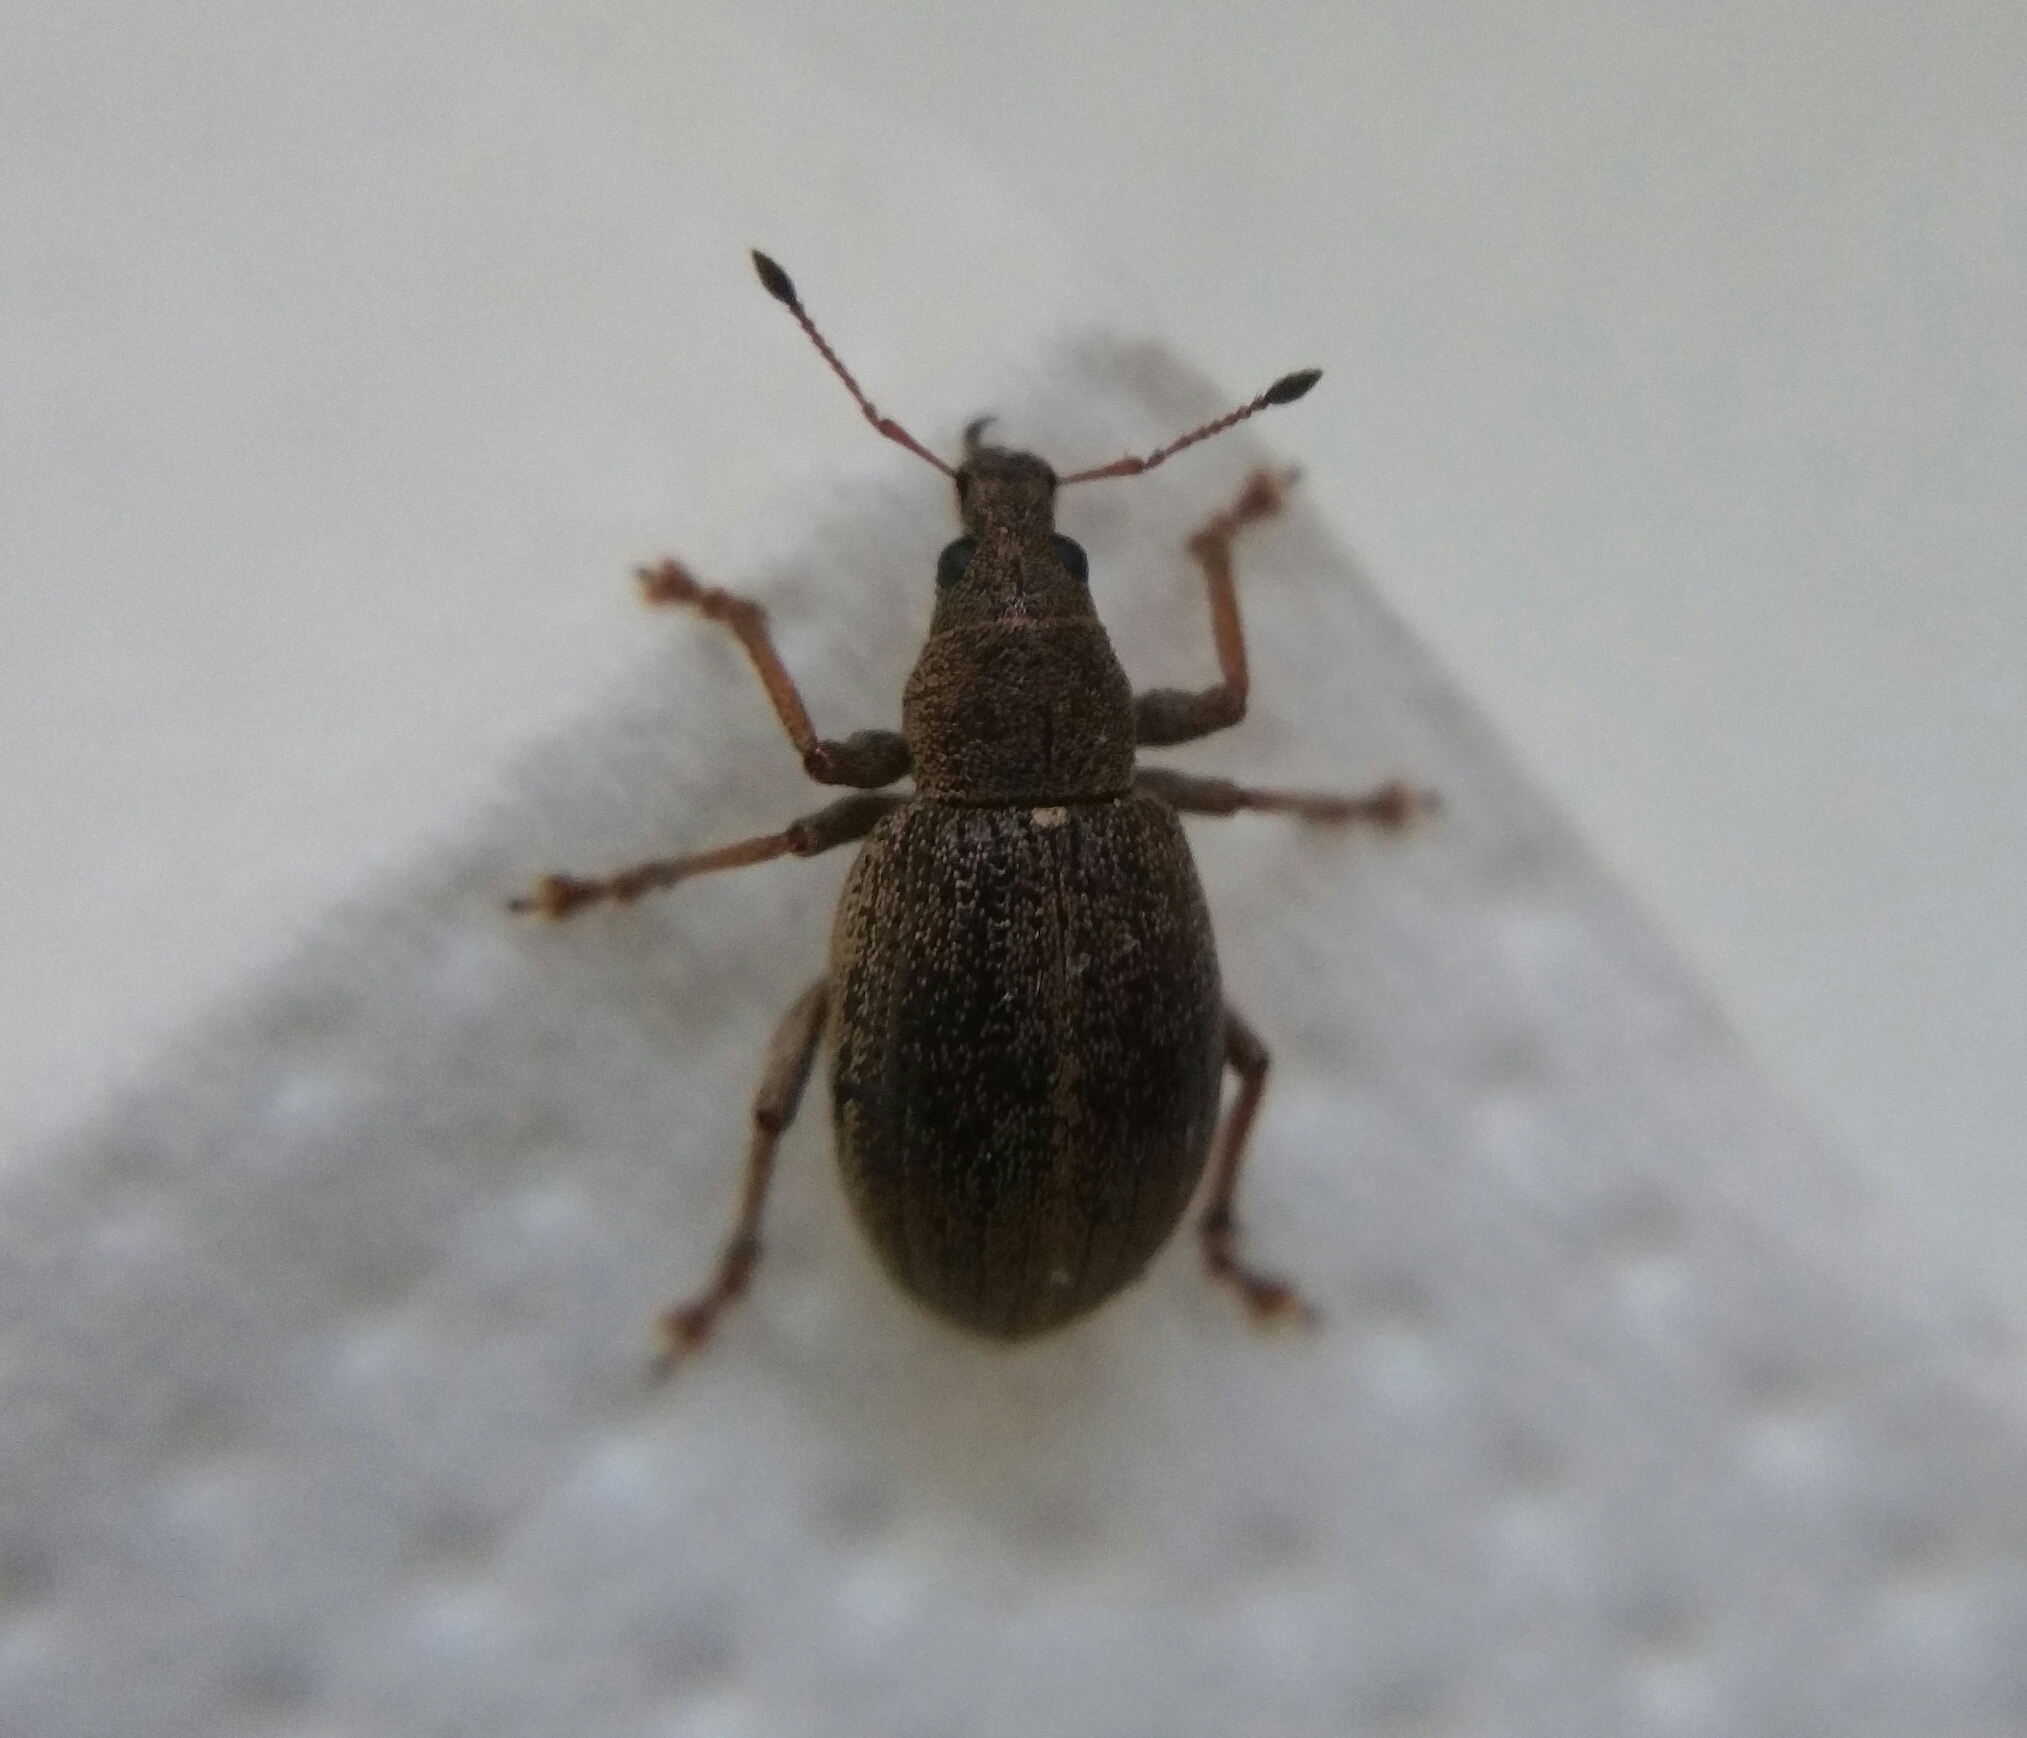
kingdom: Animalia
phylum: Arthropoda
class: Insecta
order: Coleoptera
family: Curculionidae
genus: Sciaphobus
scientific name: Sciaphobus squalidus
